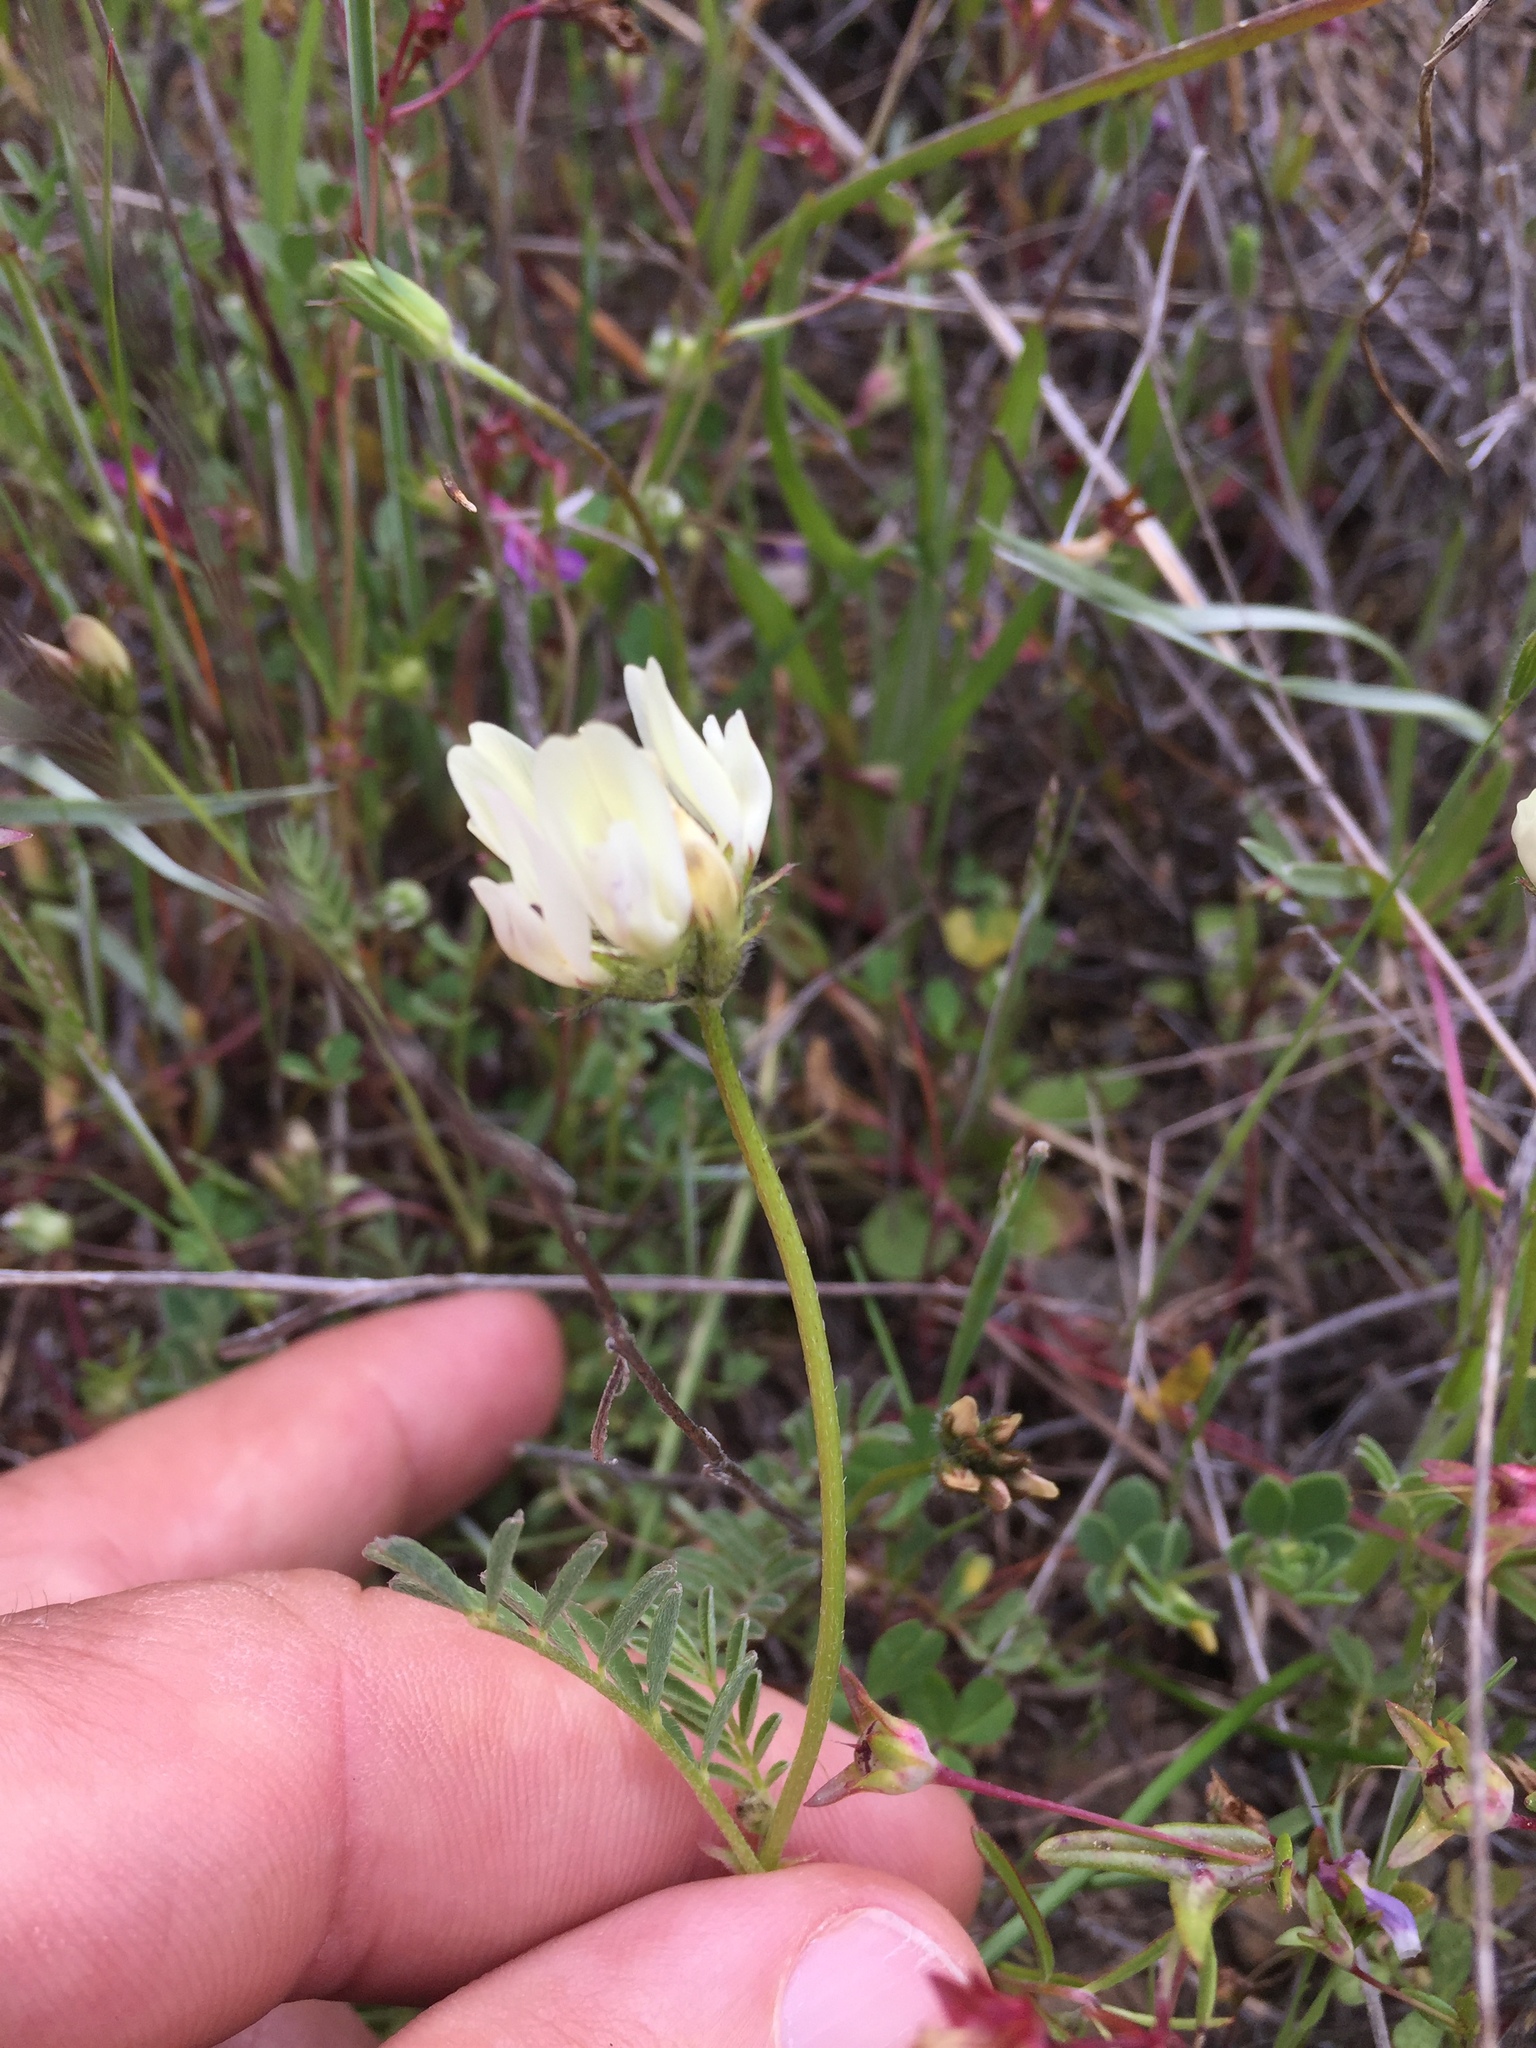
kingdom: Plantae
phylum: Tracheophyta
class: Magnoliopsida
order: Fabales
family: Fabaceae
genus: Astragalus
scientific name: Astragalus breweri
